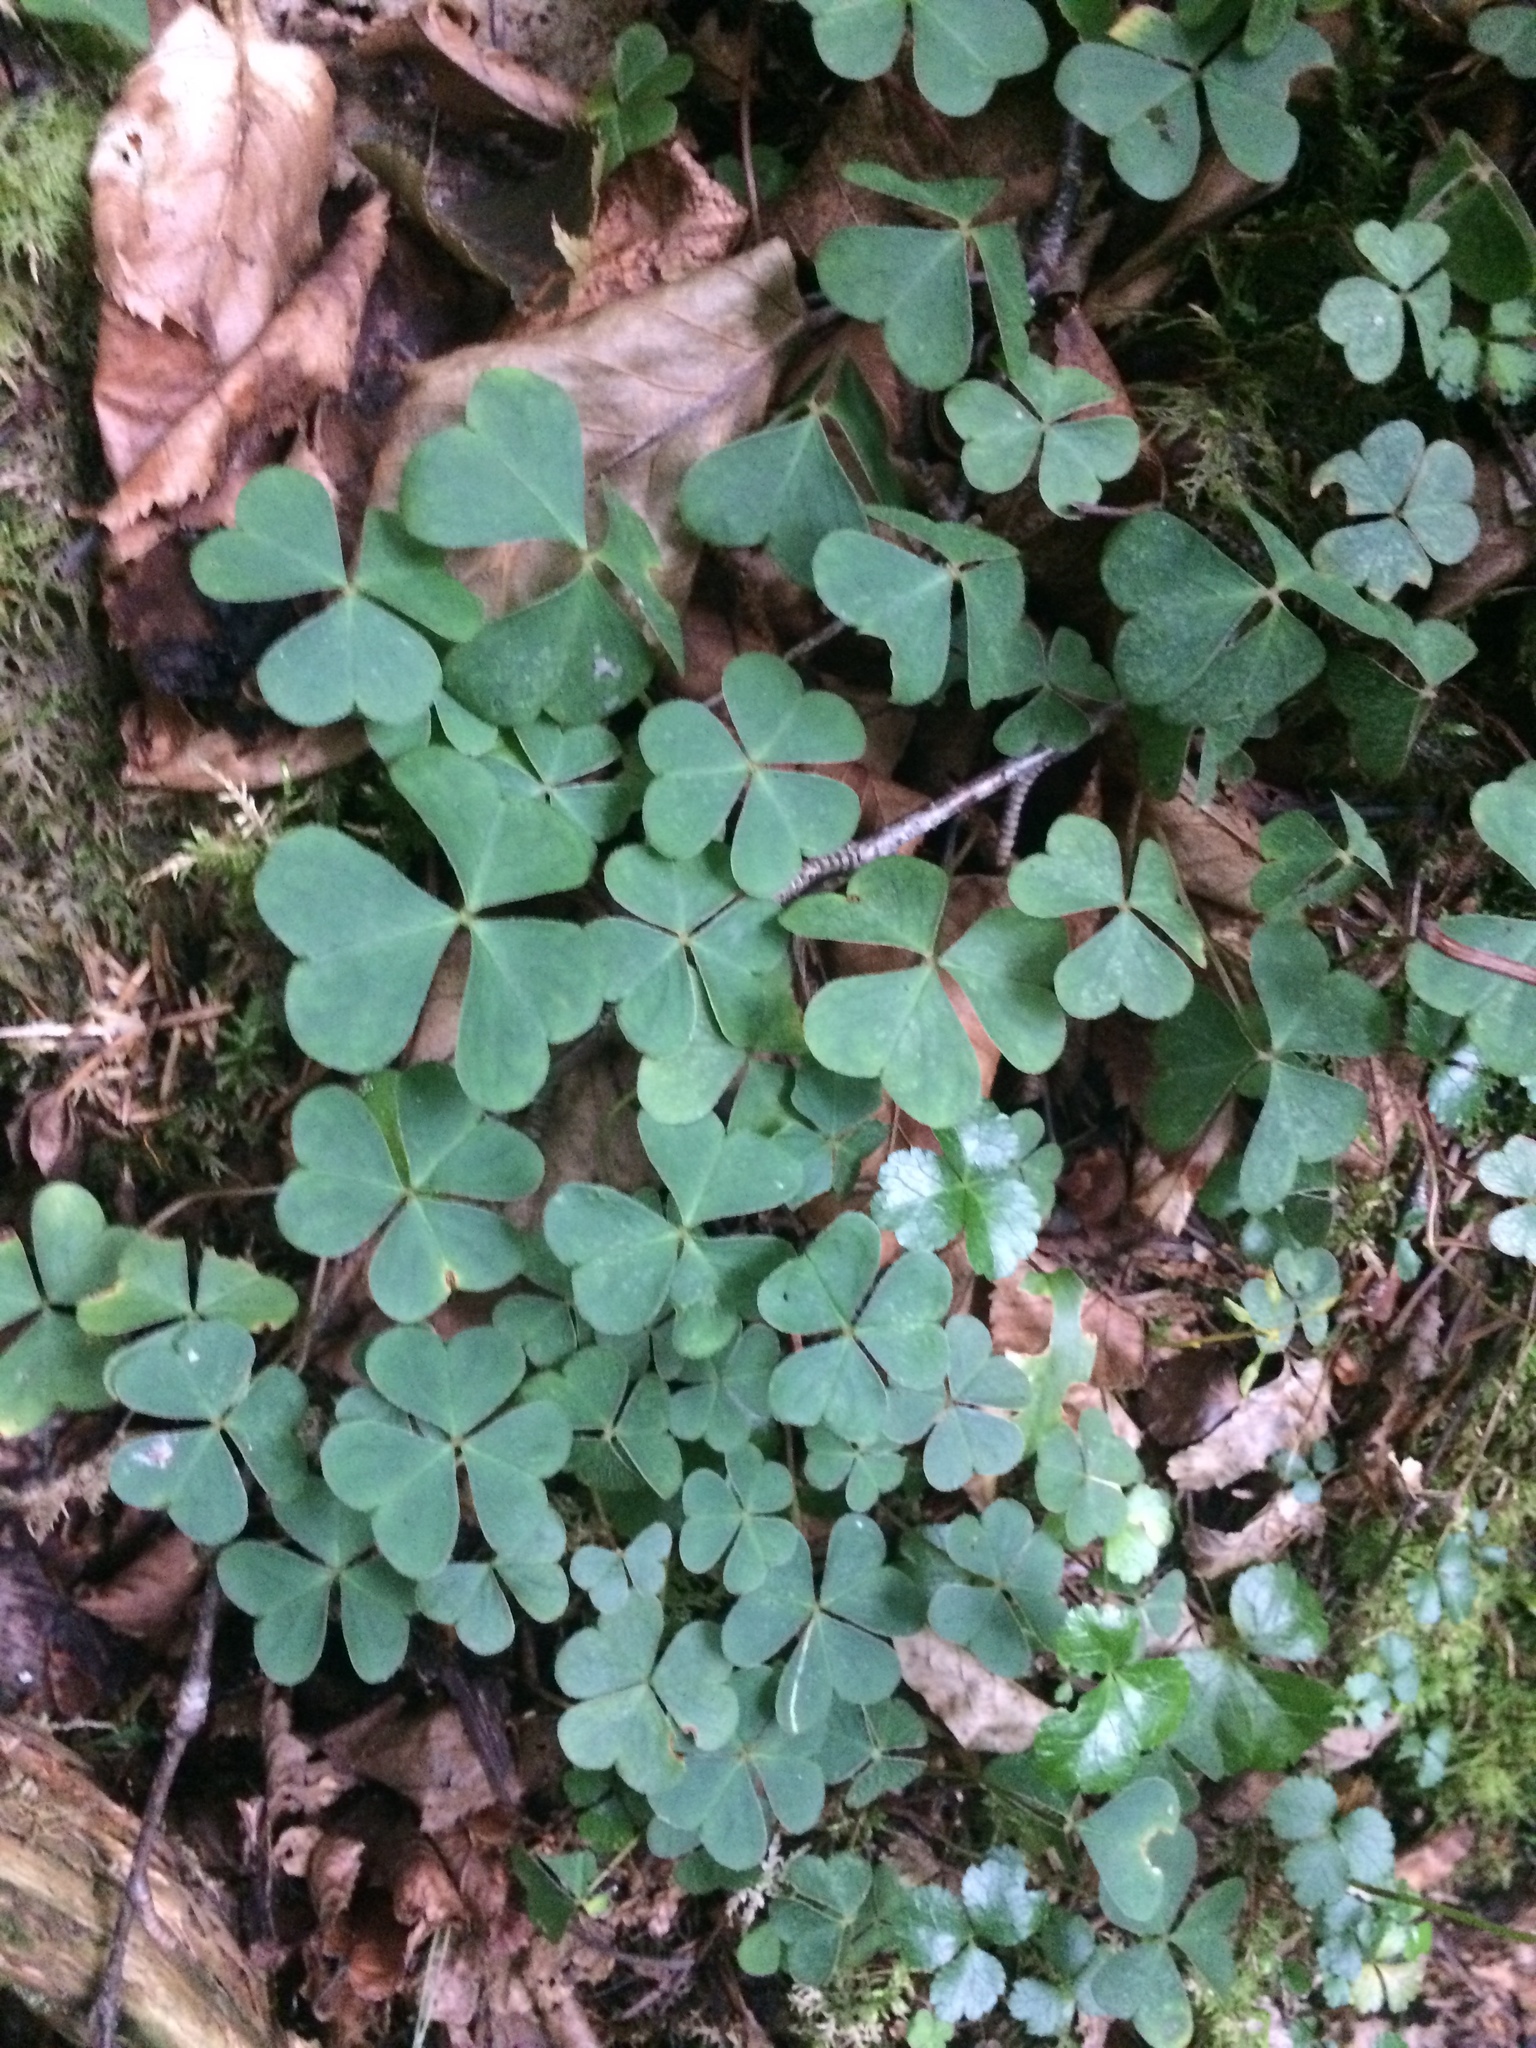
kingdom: Plantae
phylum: Tracheophyta
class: Magnoliopsida
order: Oxalidales
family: Oxalidaceae
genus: Oxalis
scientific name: Oxalis montana
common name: American wood-sorrel
